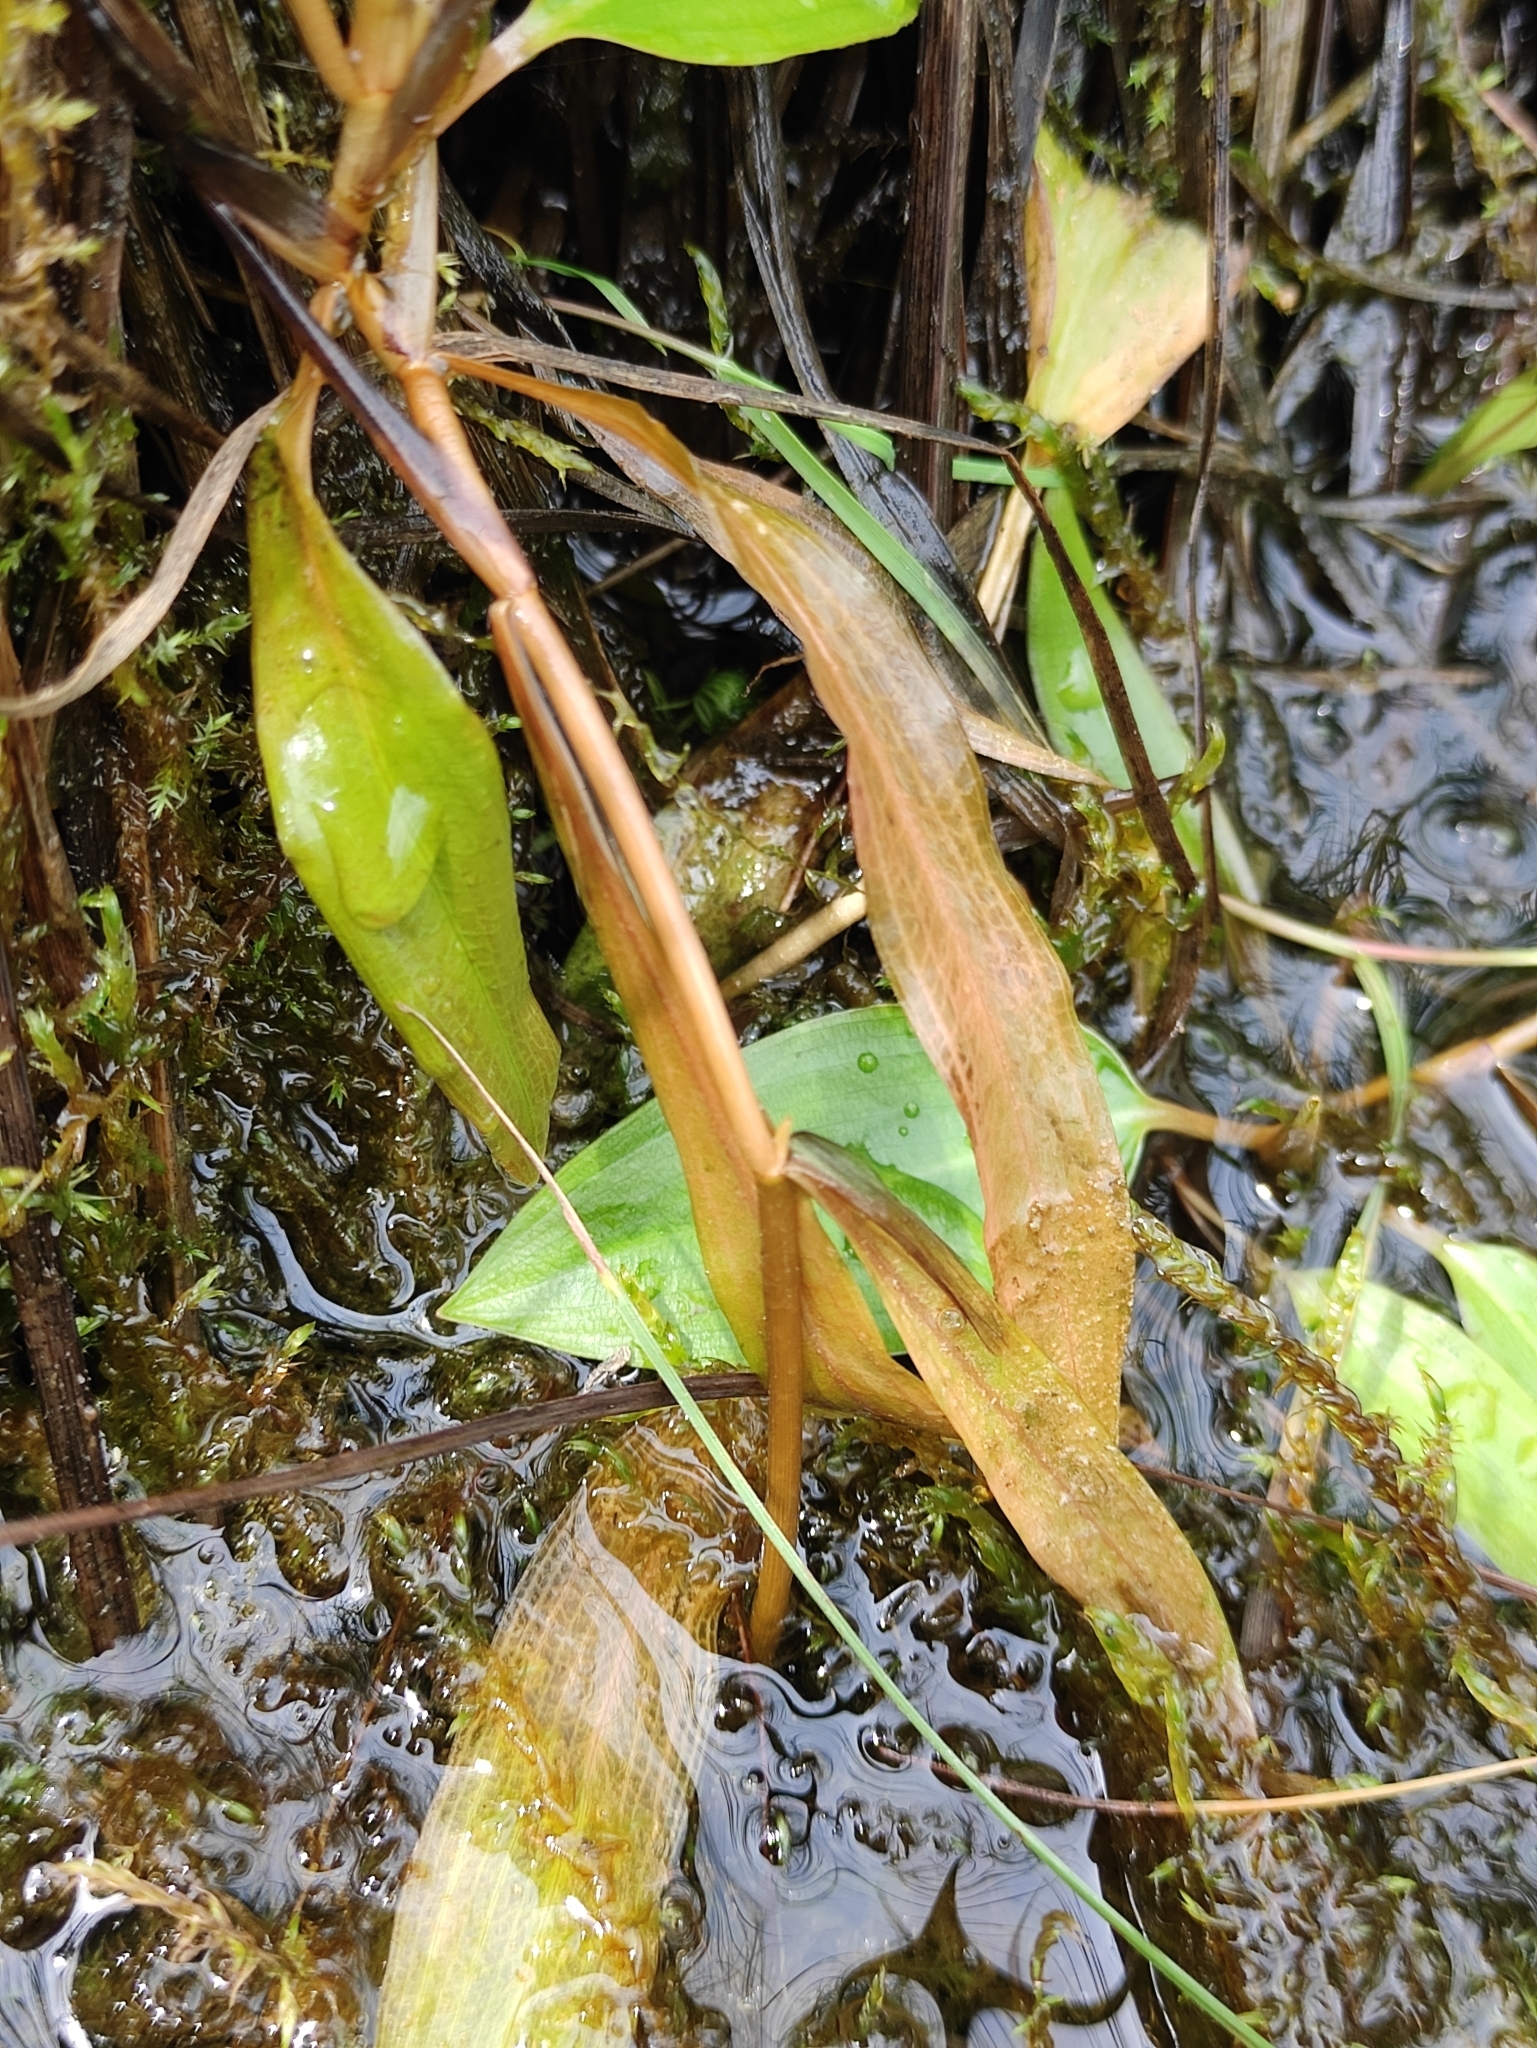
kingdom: Plantae
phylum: Tracheophyta
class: Liliopsida
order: Alismatales
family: Potamogetonaceae
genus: Potamogeton
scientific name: Potamogeton gramineus
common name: Various-leaved pondweed
